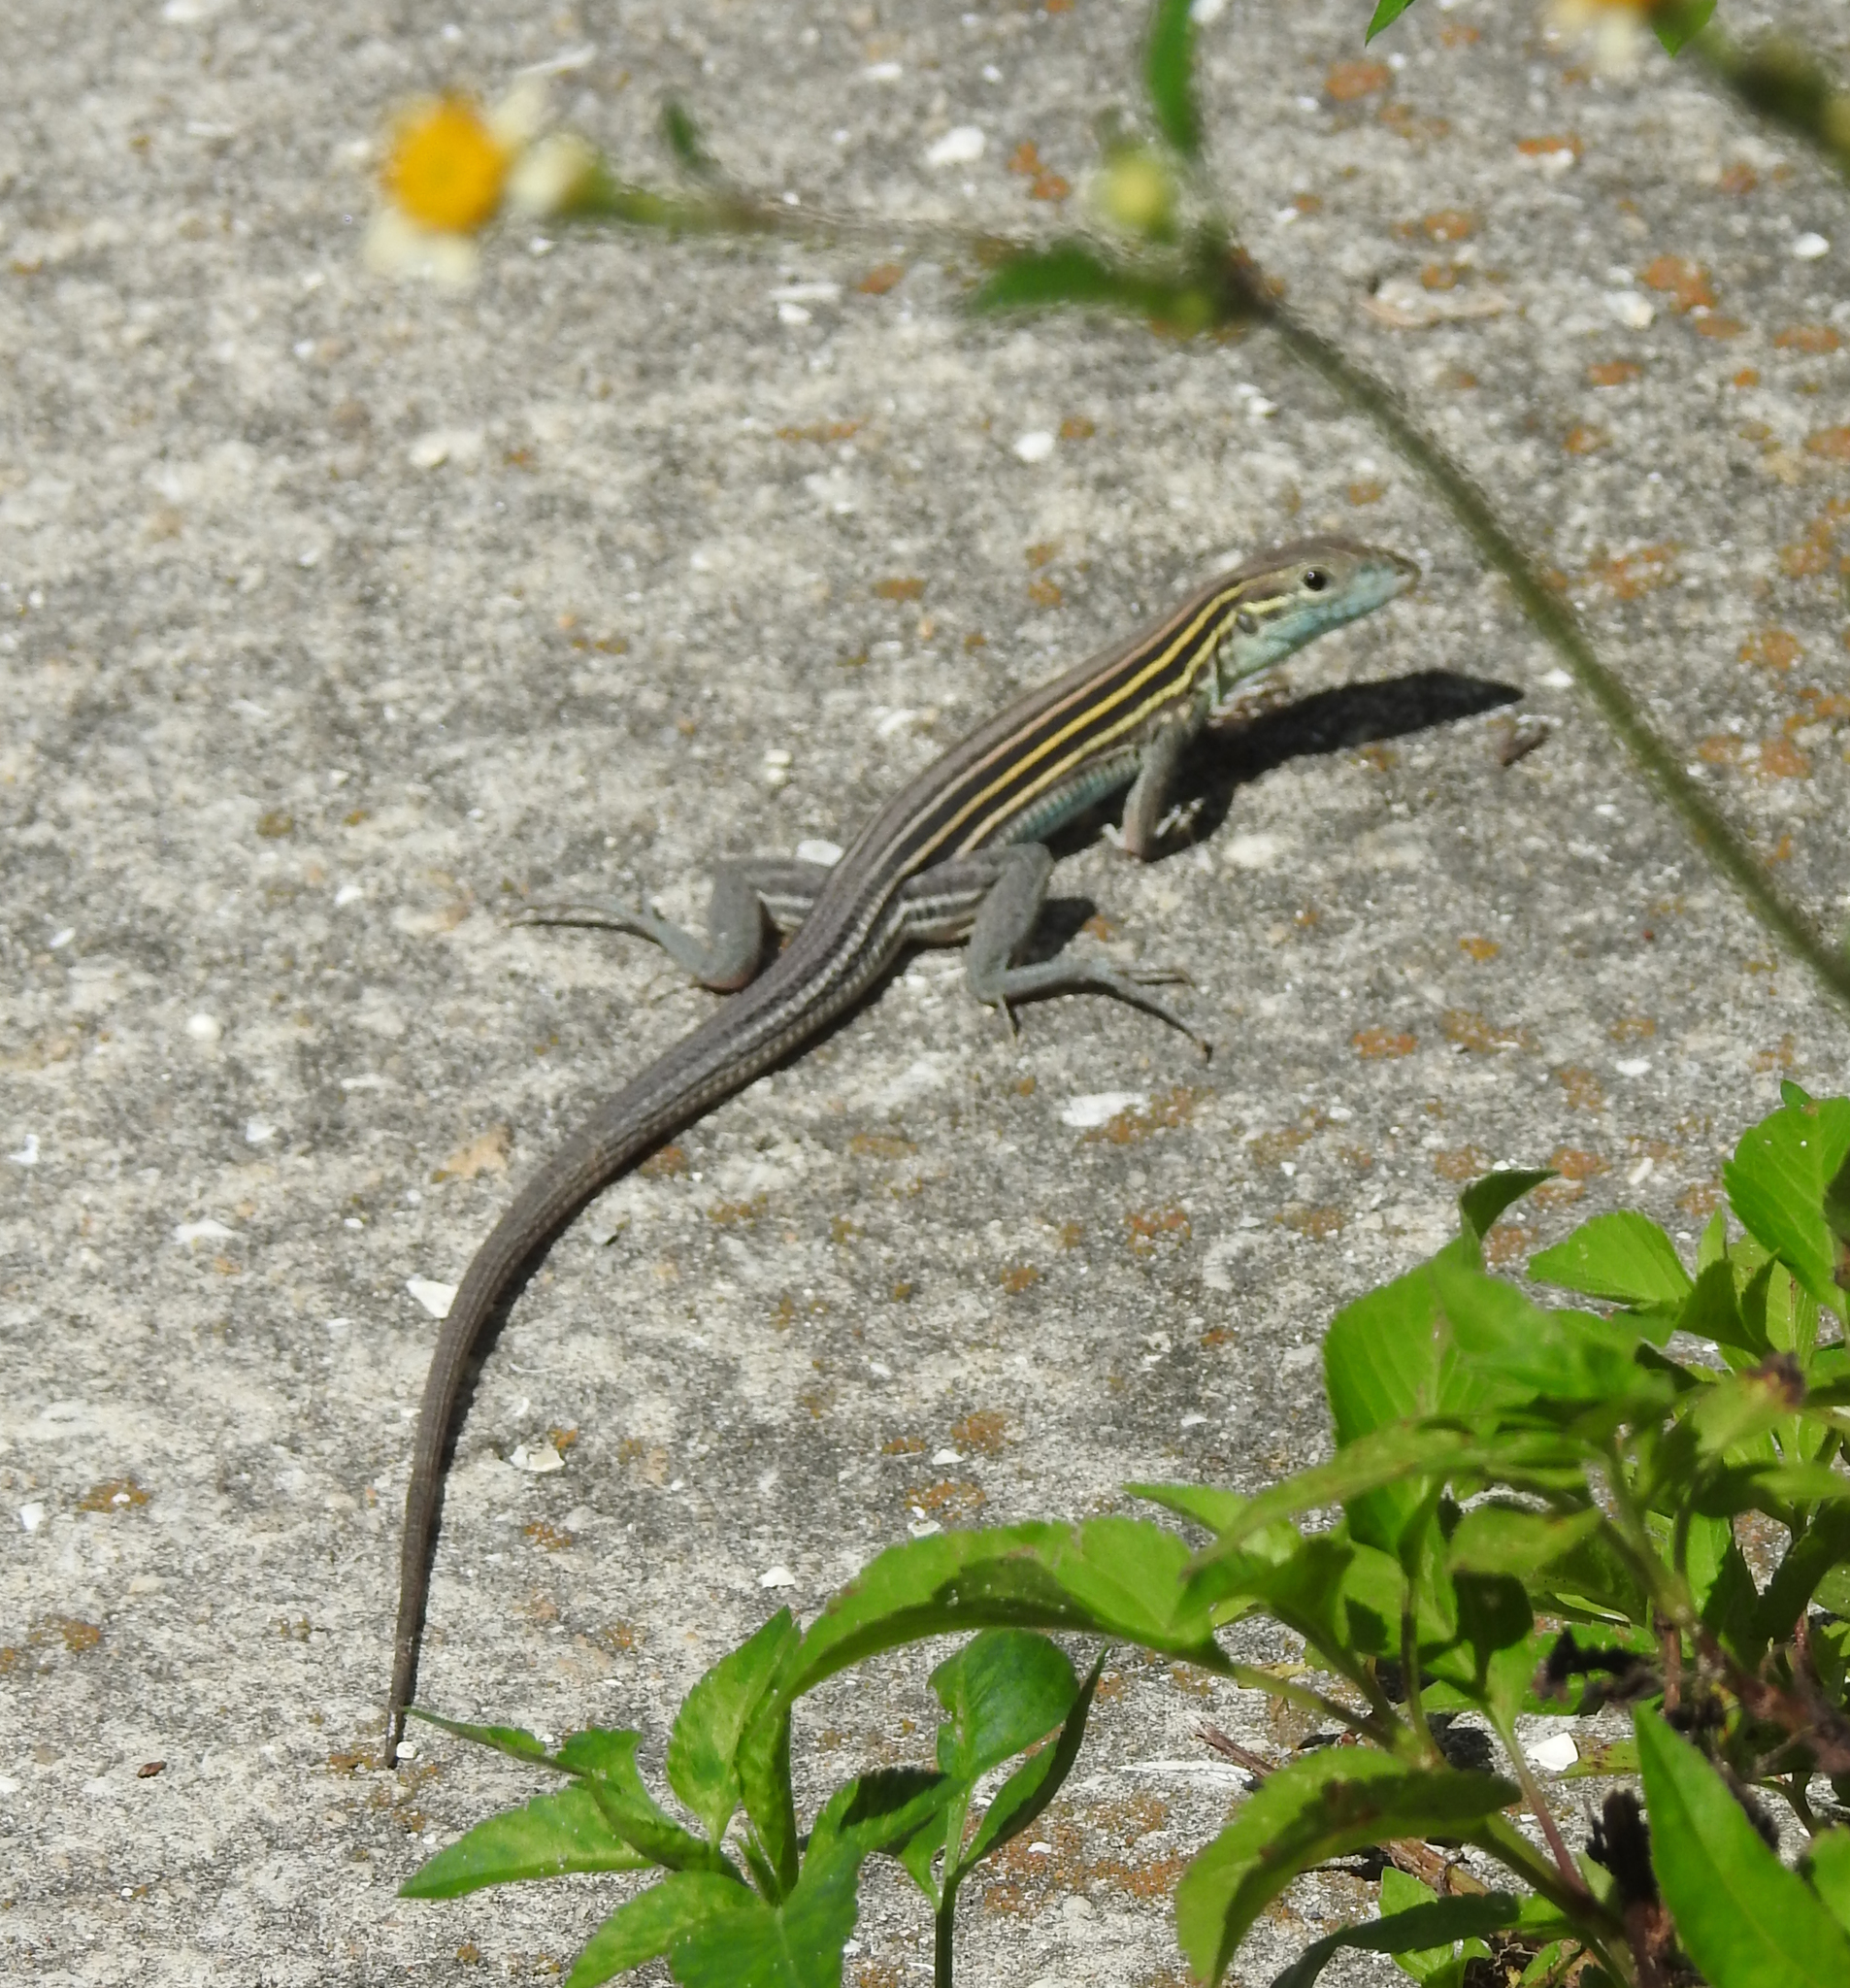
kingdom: Animalia
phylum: Chordata
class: Squamata
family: Teiidae
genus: Aspidoscelis
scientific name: Aspidoscelis sexlineatus
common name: Six-lined racerunner
